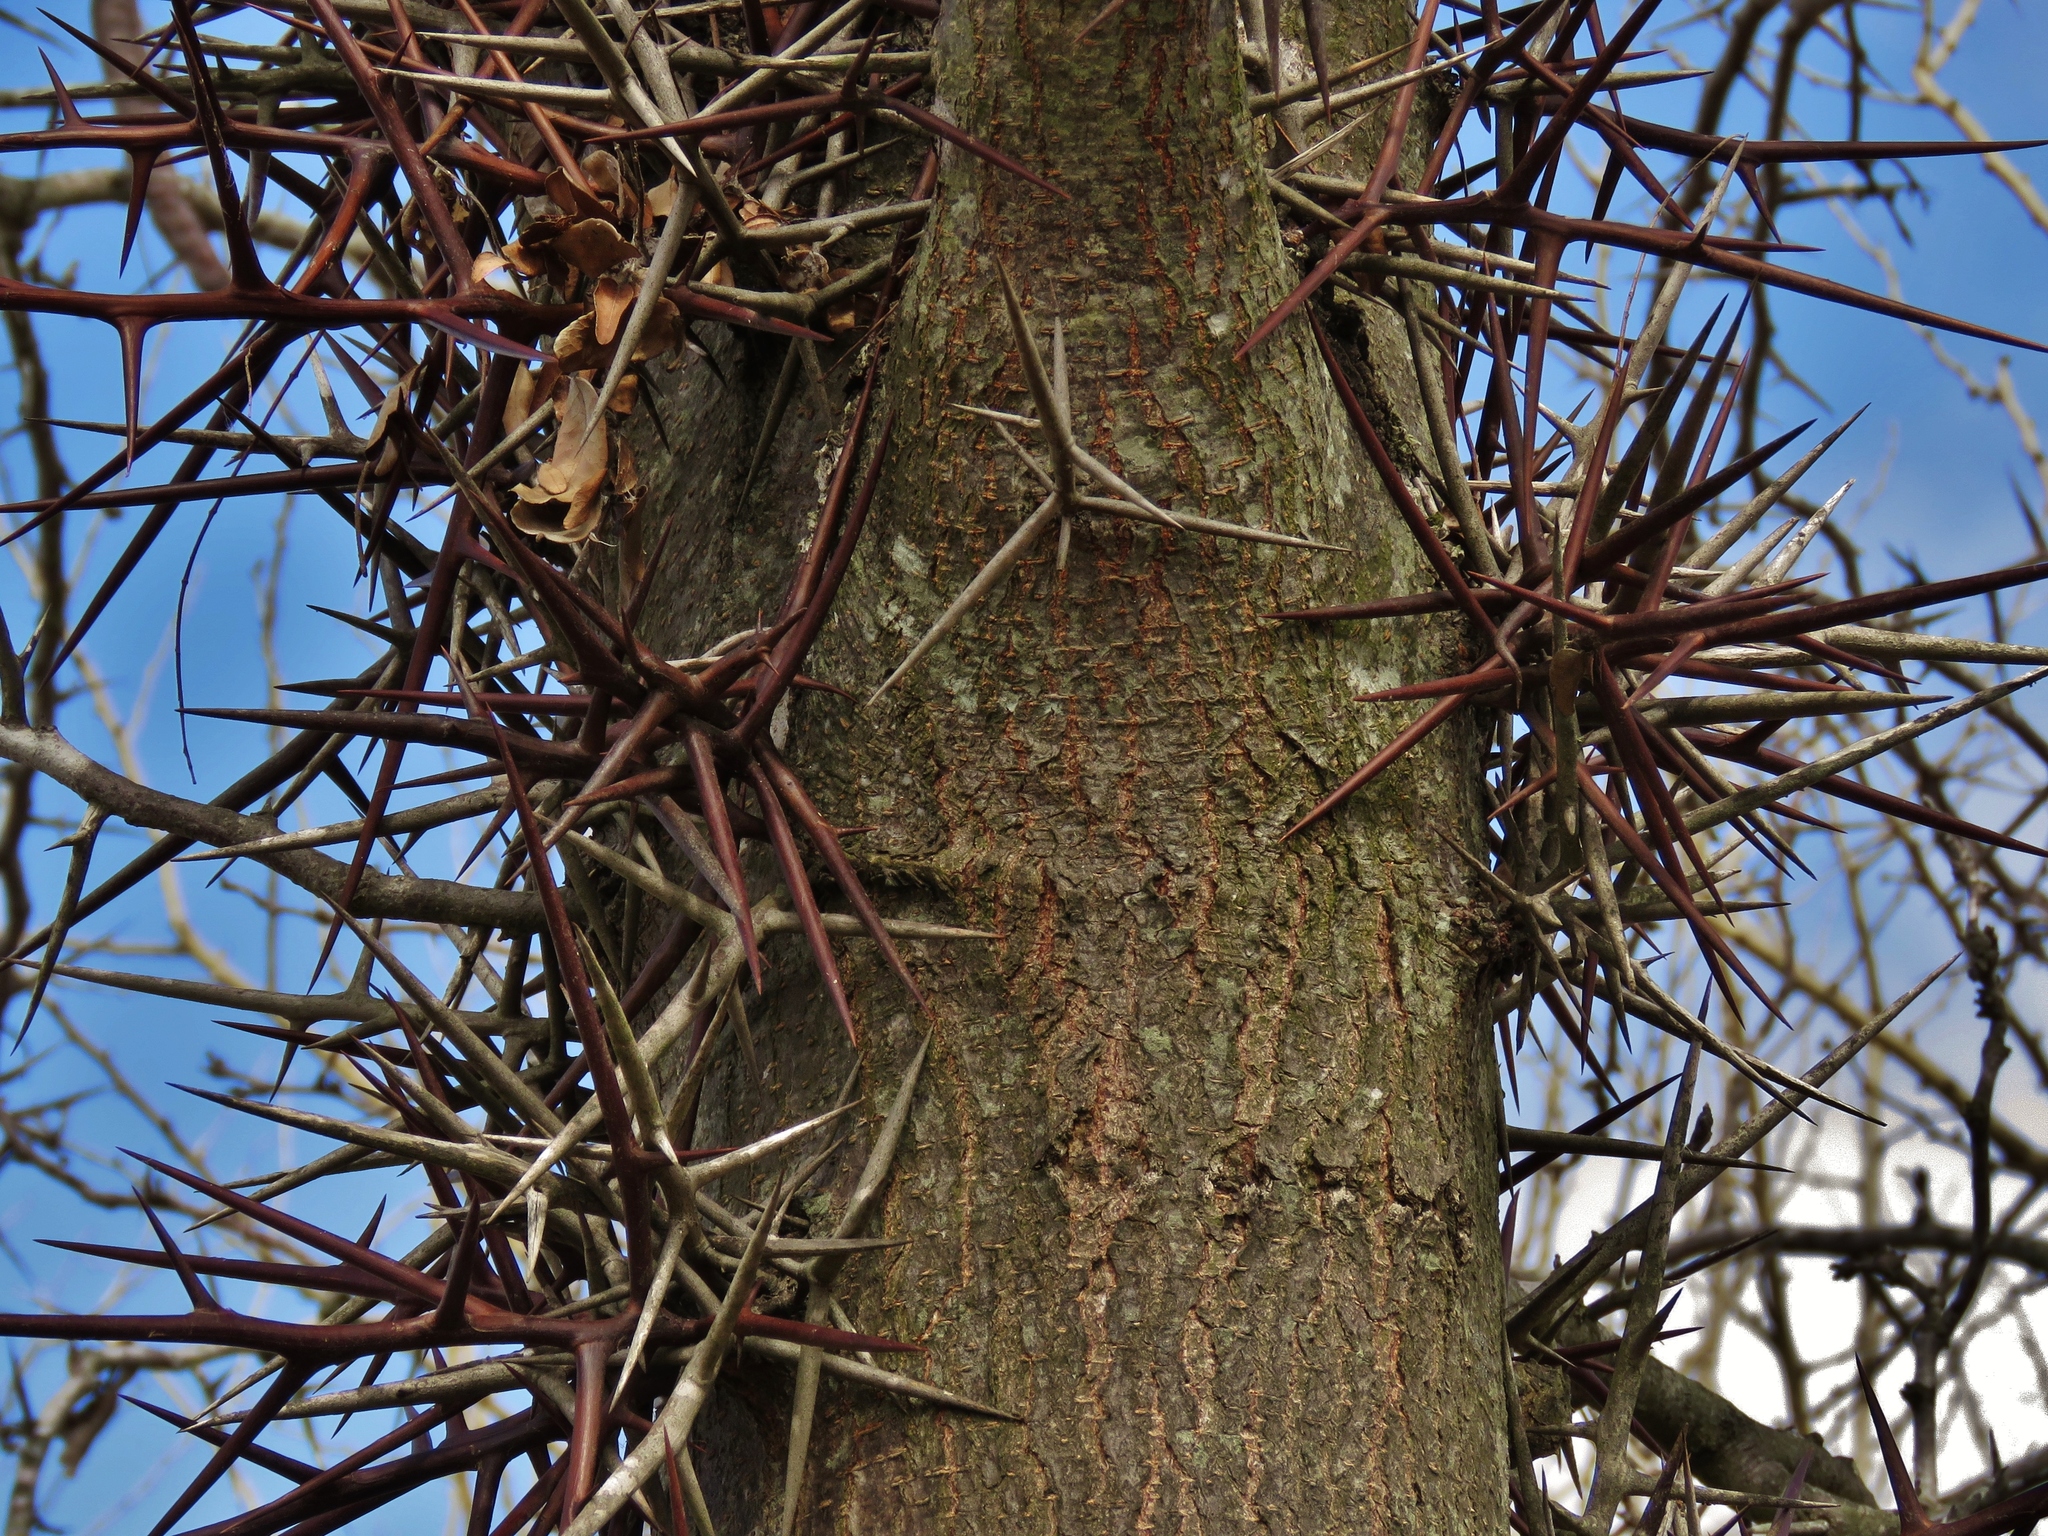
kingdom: Plantae
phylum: Tracheophyta
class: Magnoliopsida
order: Fabales
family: Fabaceae
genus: Gleditsia
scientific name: Gleditsia triacanthos
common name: Common honeylocust
